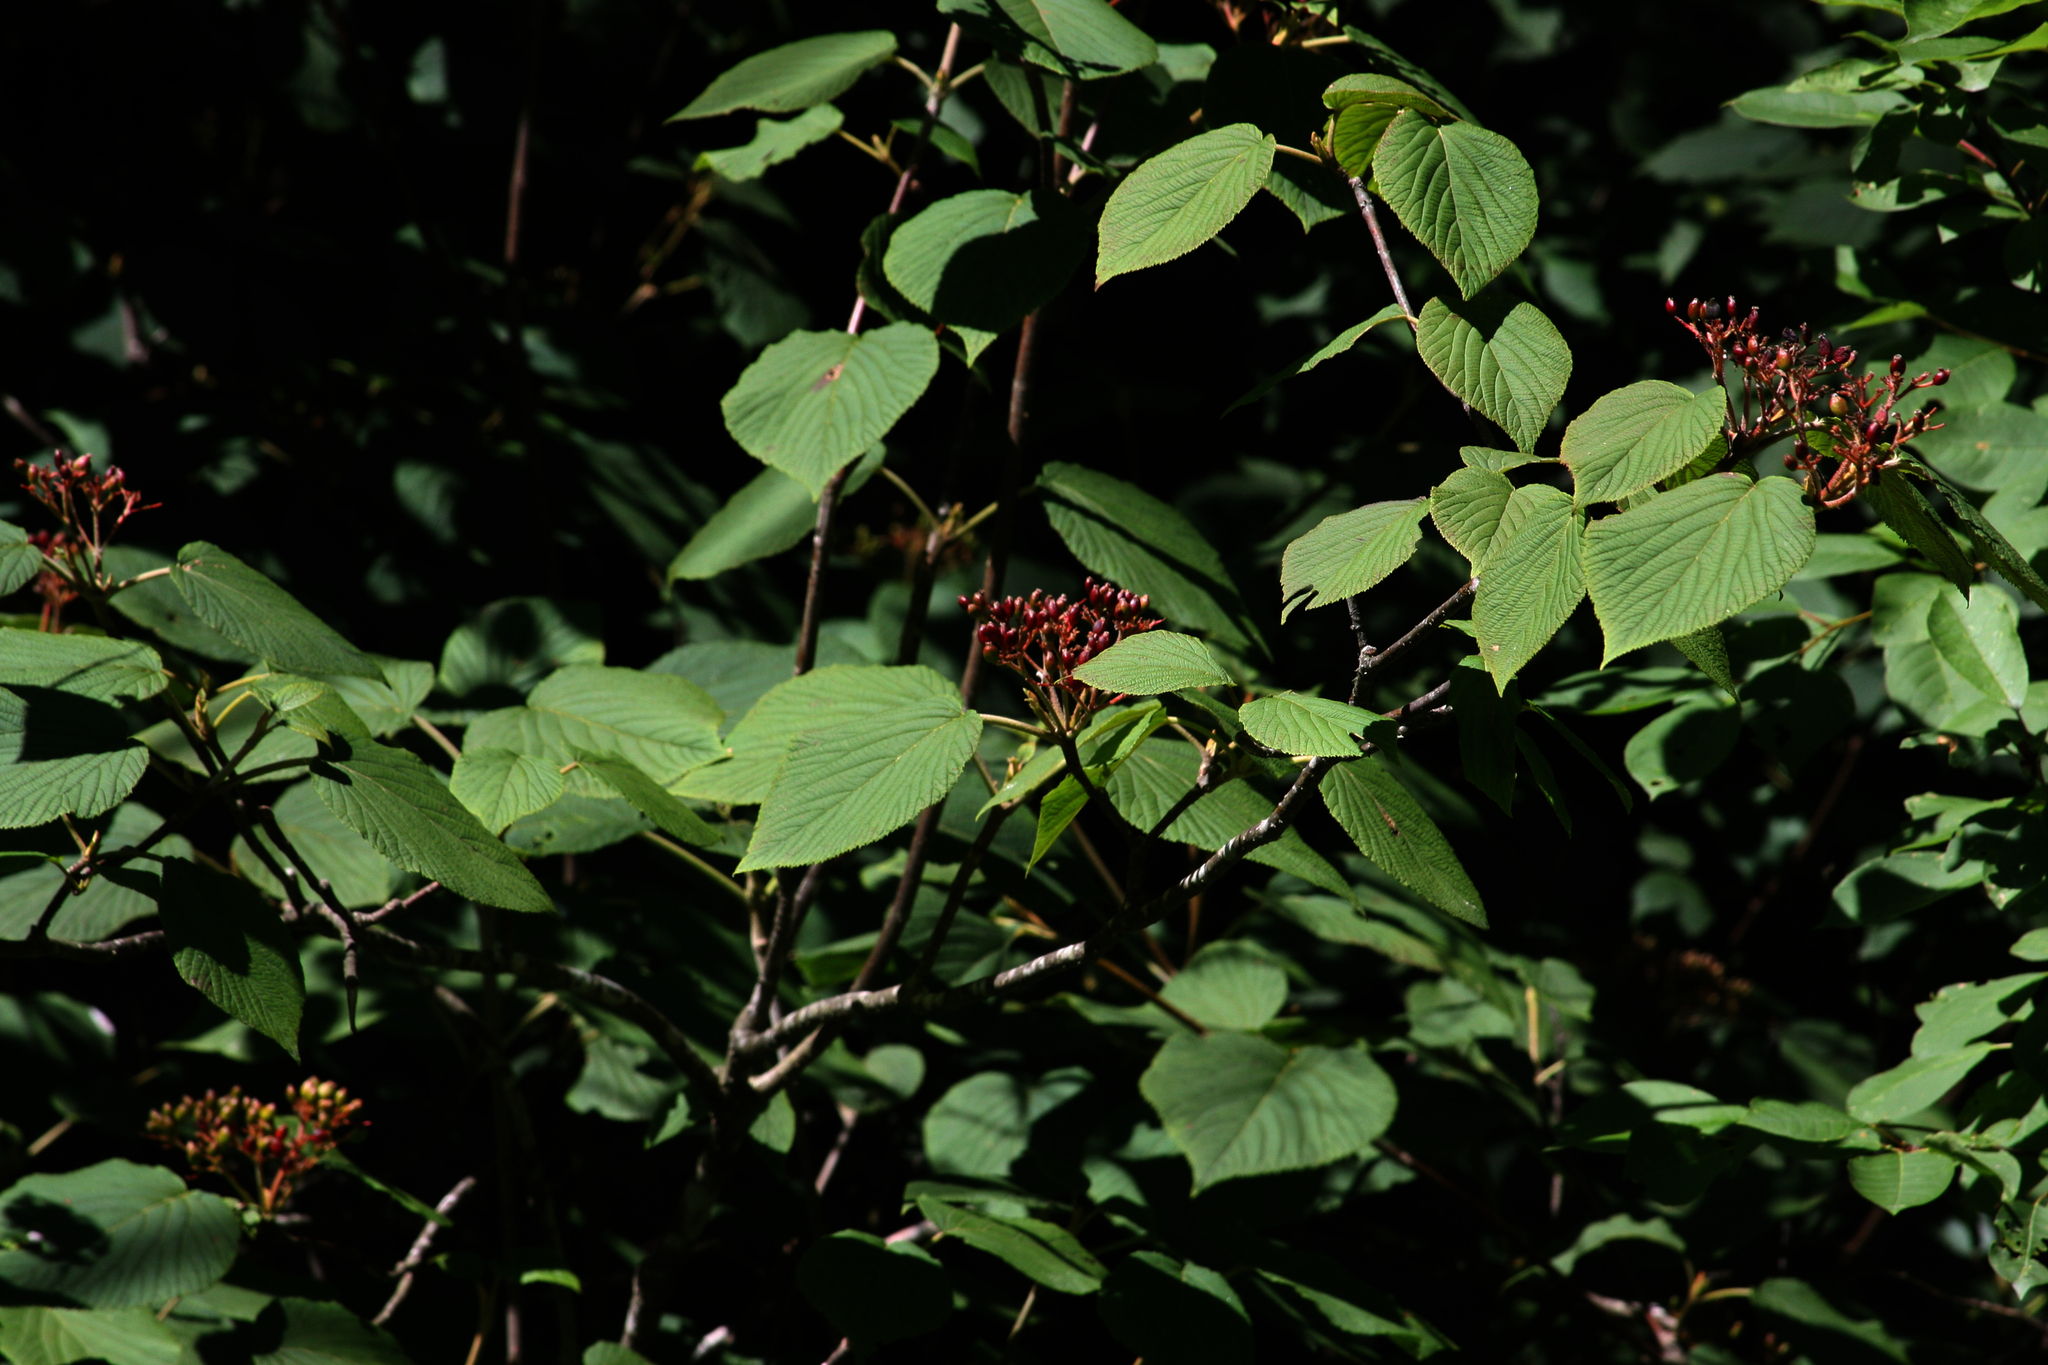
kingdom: Plantae
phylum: Tracheophyta
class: Magnoliopsida
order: Dipsacales
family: Viburnaceae
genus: Viburnum
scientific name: Viburnum lantanoides
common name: Hobblebush
